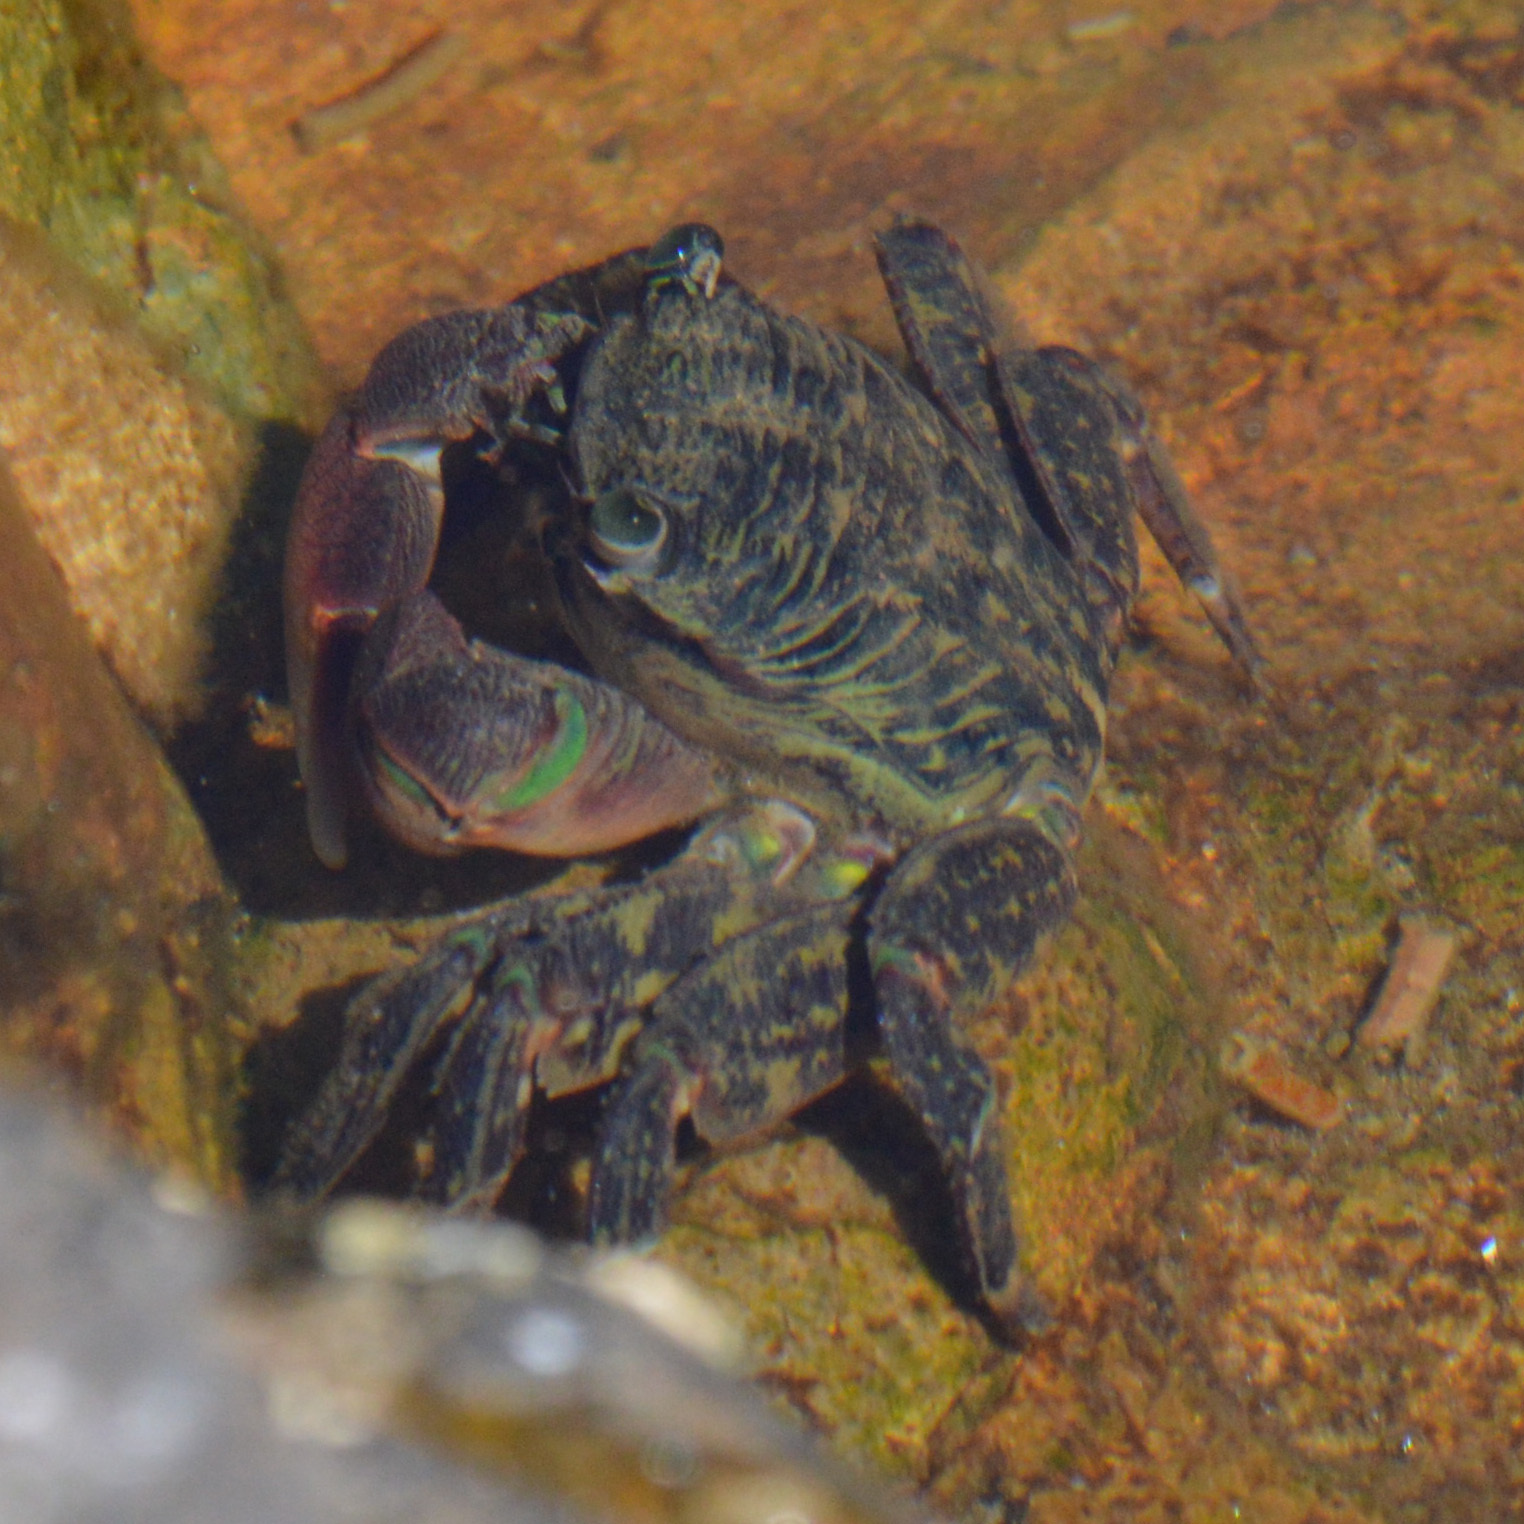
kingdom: Animalia
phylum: Arthropoda
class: Malacostraca
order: Decapoda
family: Grapsidae
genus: Pachygrapsus
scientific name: Pachygrapsus crassipes
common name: Striped shore crab
